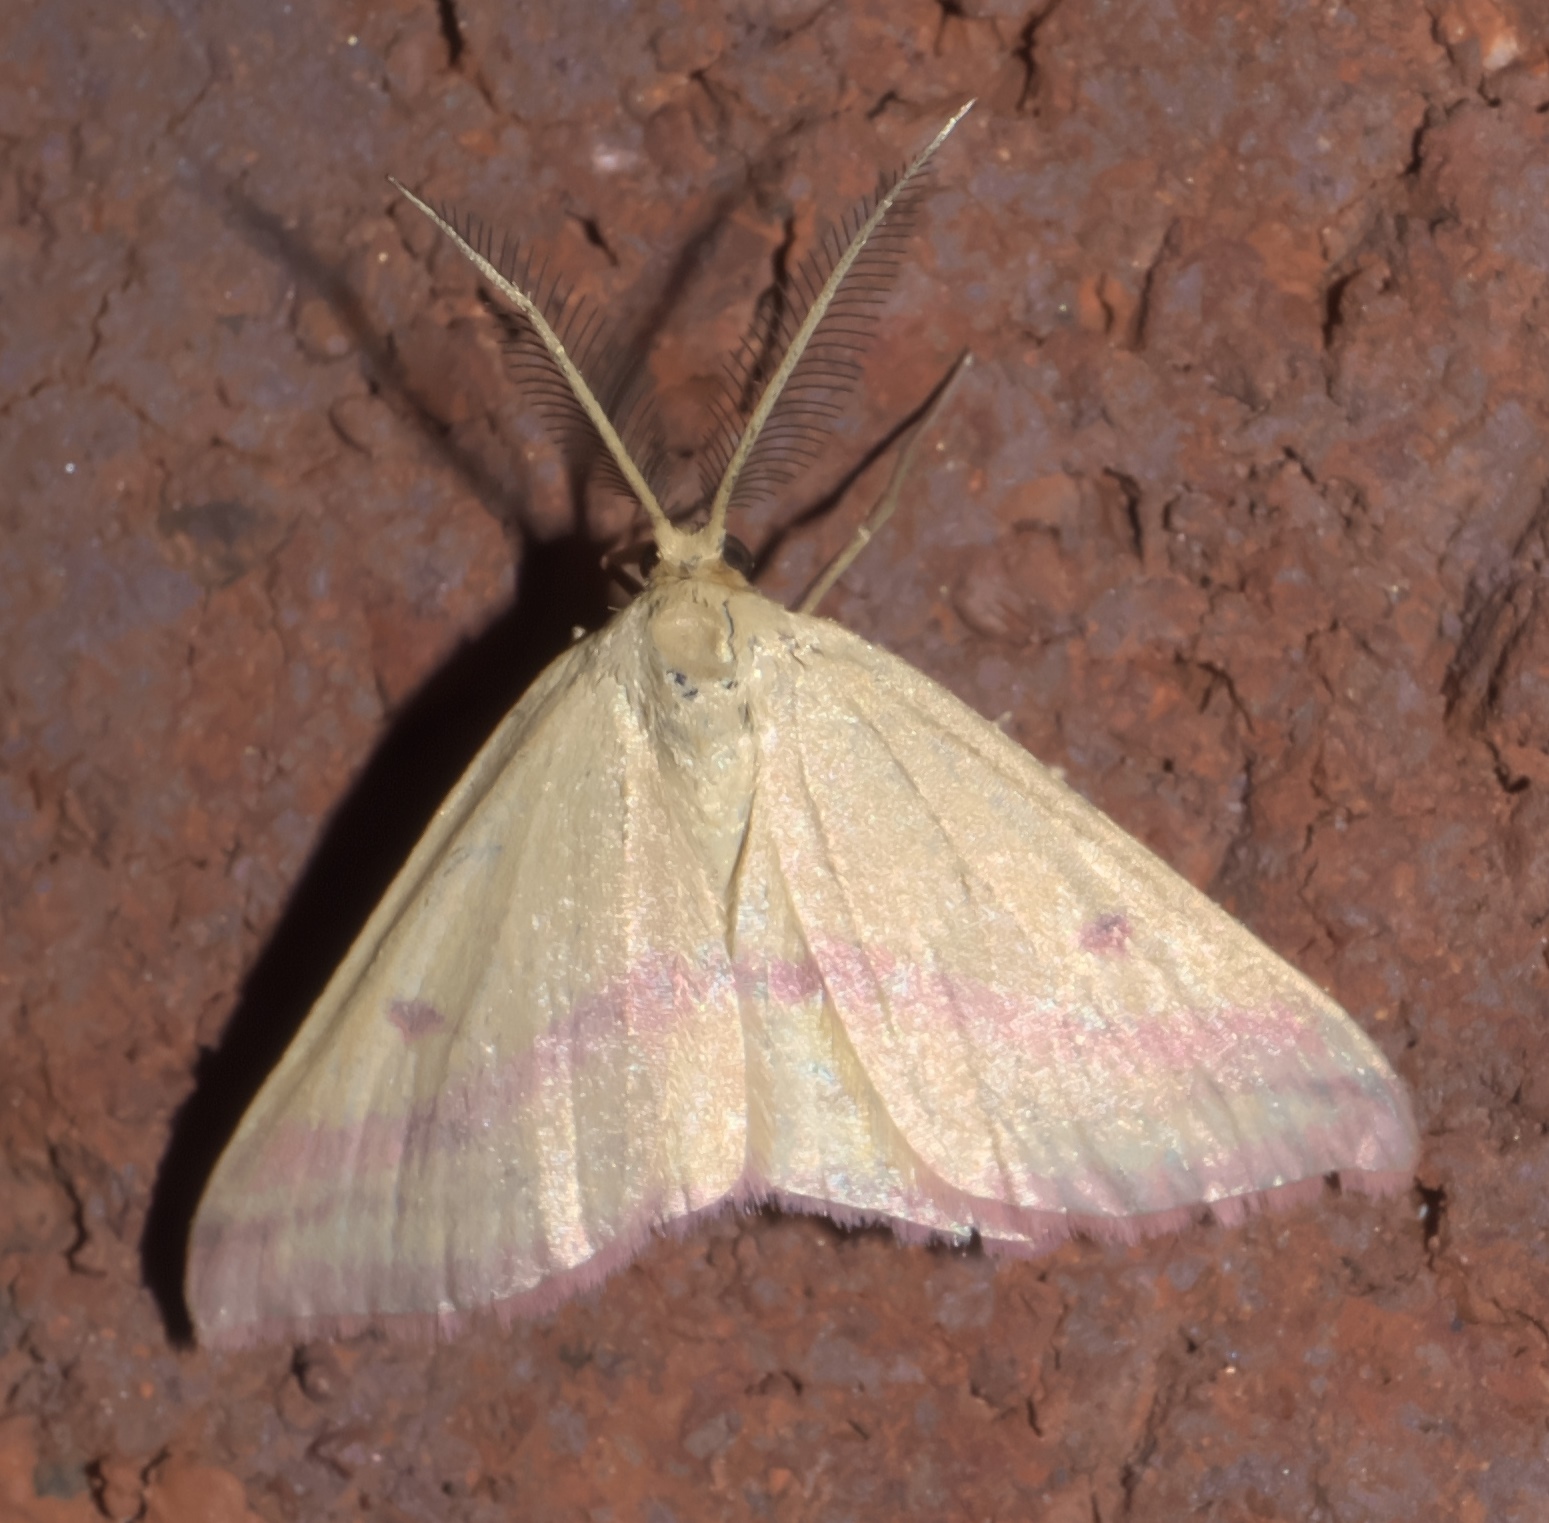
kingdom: Animalia
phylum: Arthropoda
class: Insecta
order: Lepidoptera
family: Geometridae
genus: Haematopis
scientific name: Haematopis grataria
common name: Chickweed geometer
